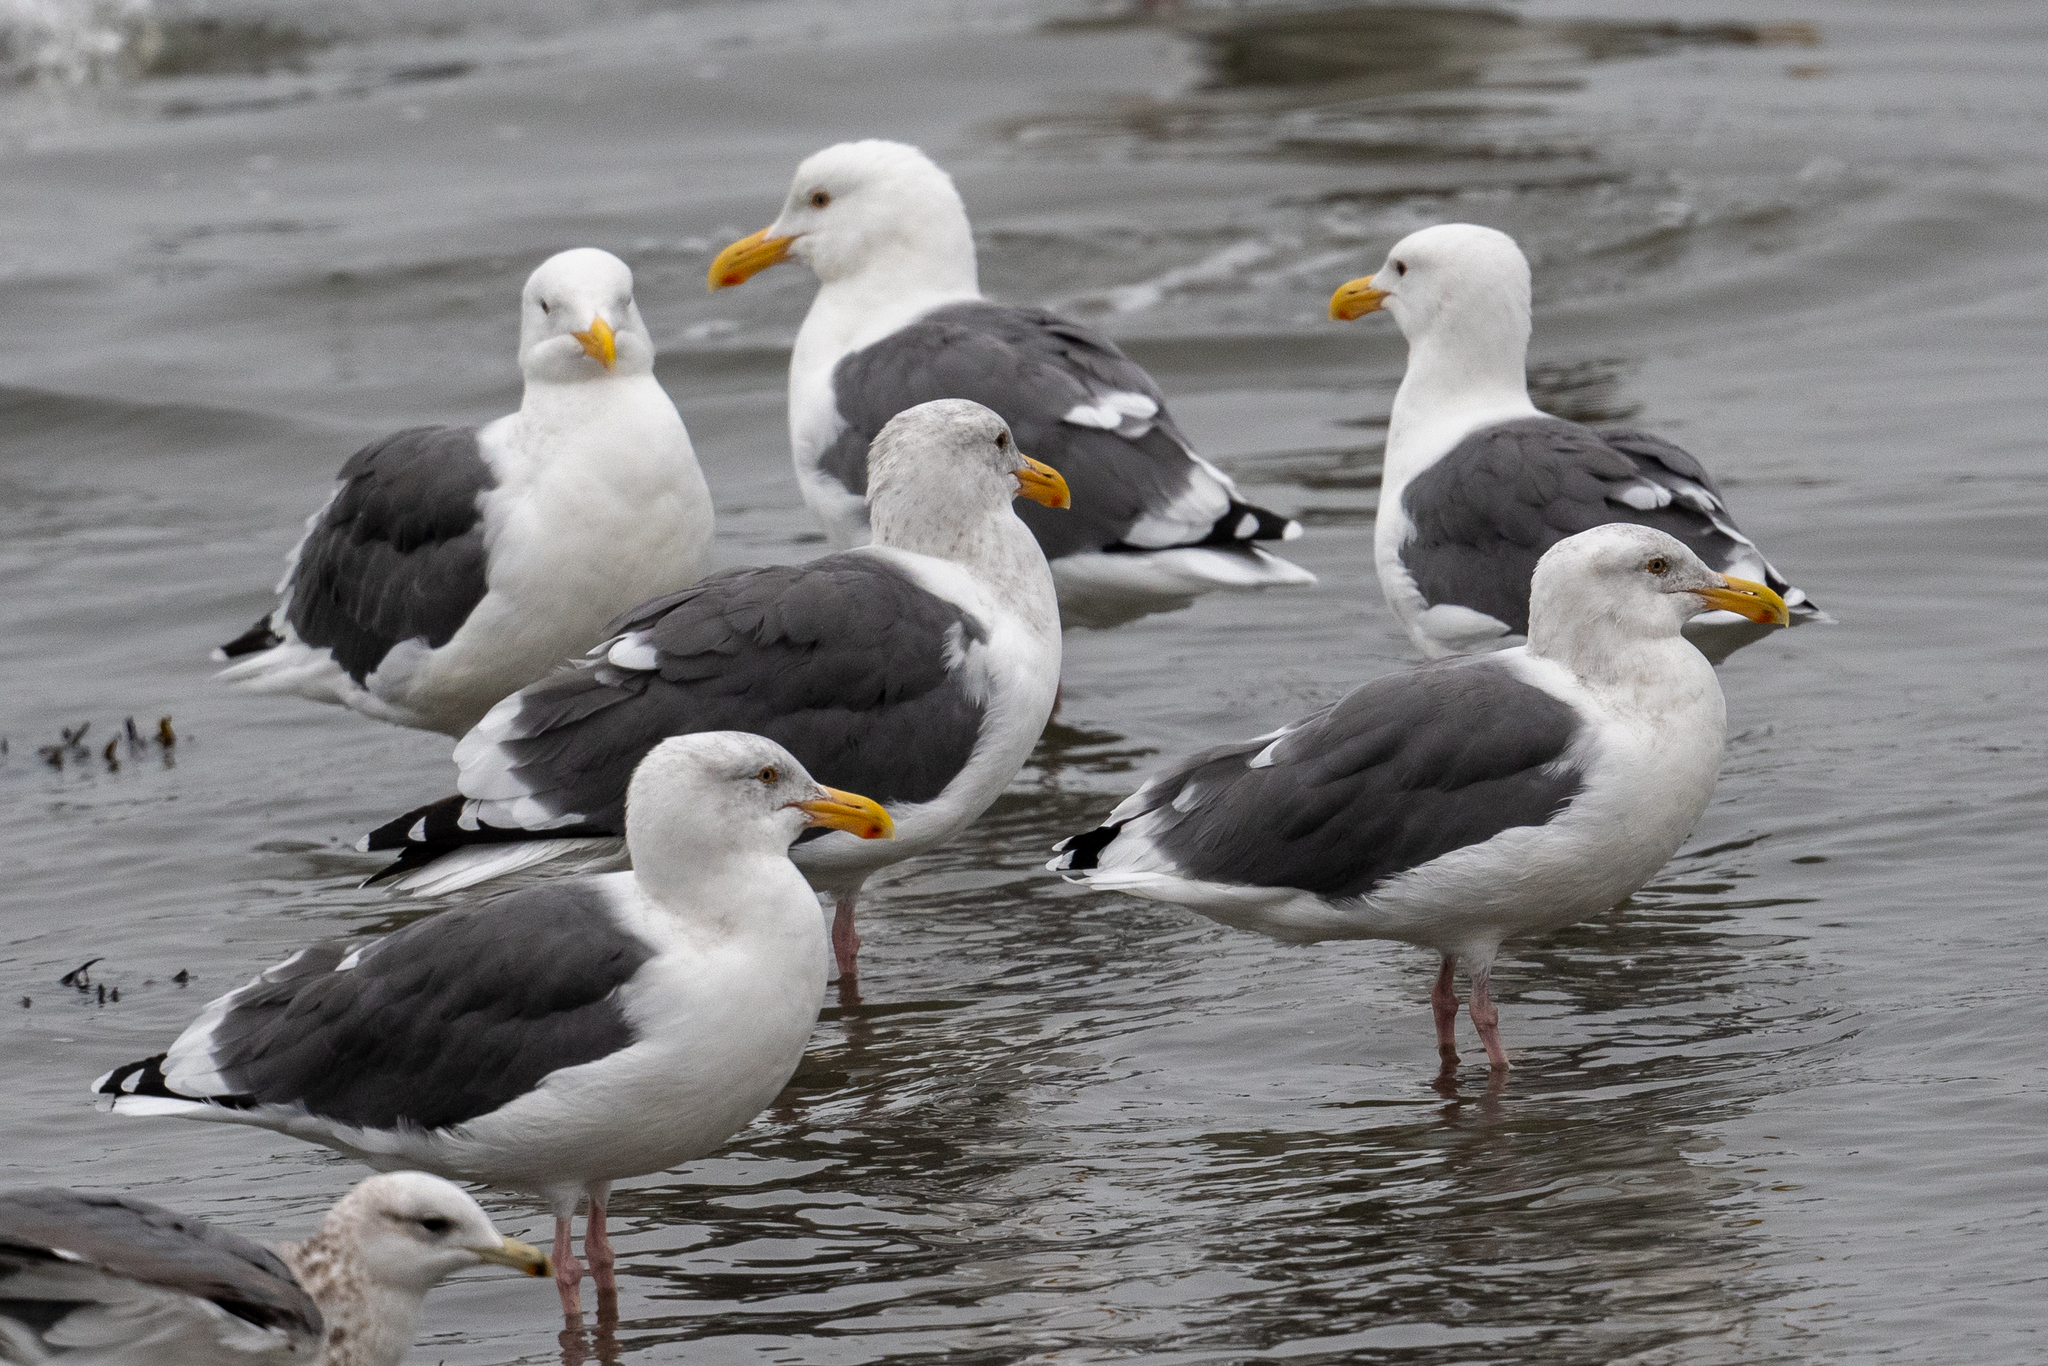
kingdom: Animalia
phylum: Chordata
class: Aves
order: Charadriiformes
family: Laridae
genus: Larus
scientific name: Larus occidentalis
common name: Western gull
